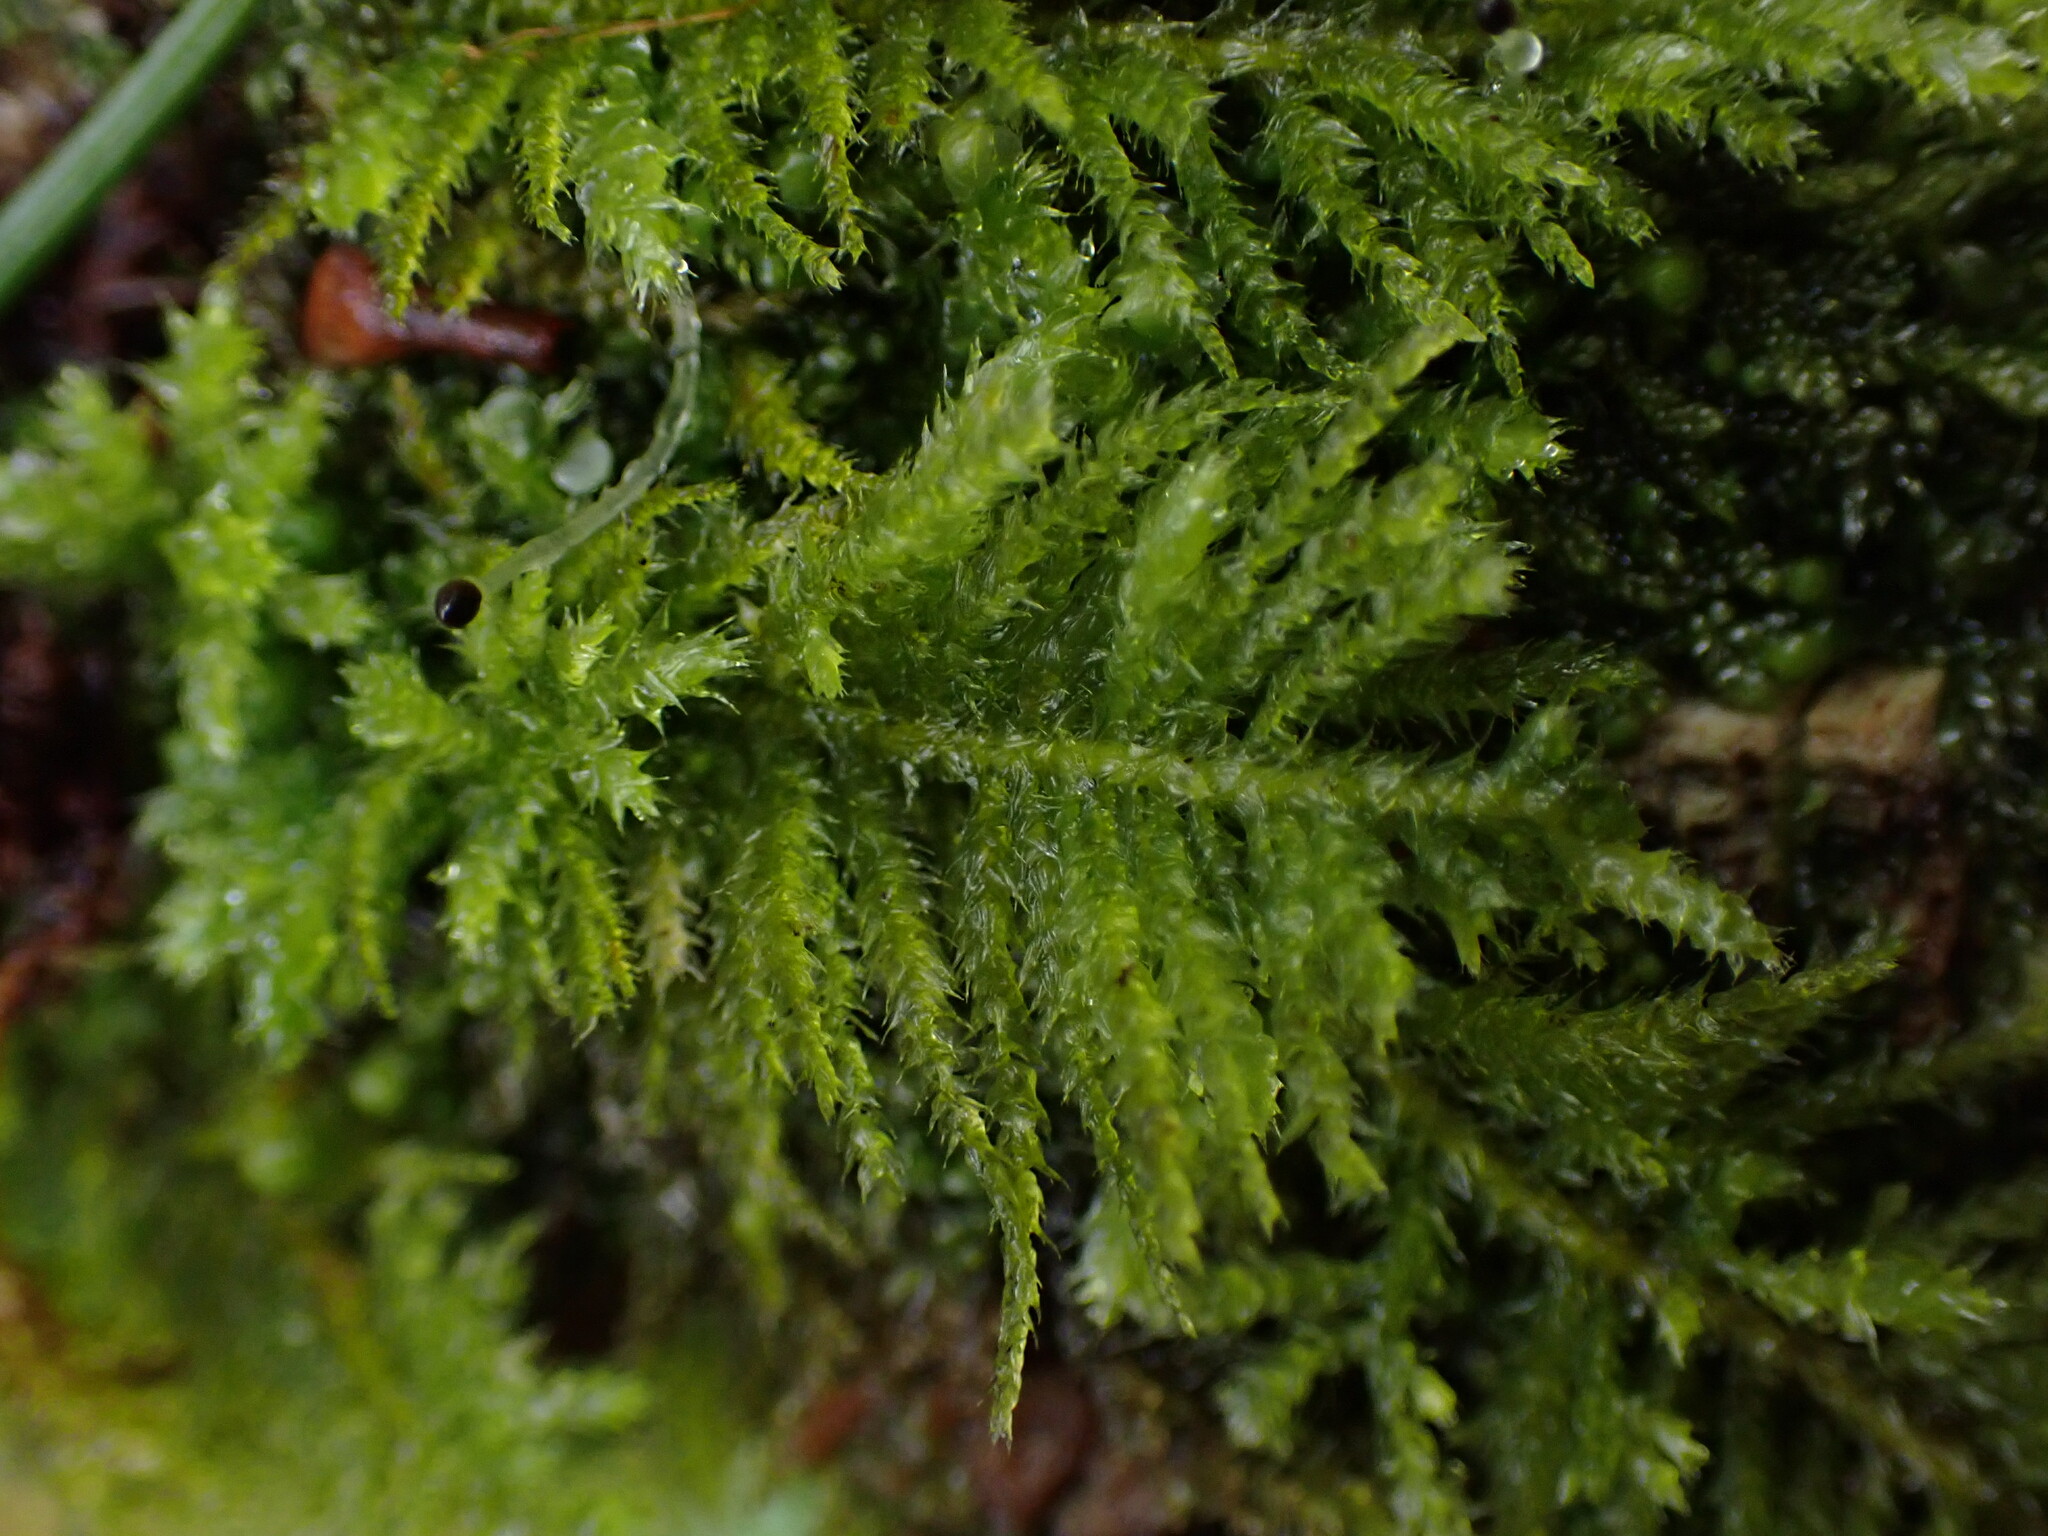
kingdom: Plantae
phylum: Bryophyta
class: Bryopsida
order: Hypnales
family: Brachytheciaceae
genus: Kindbergia
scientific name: Kindbergia oregana
